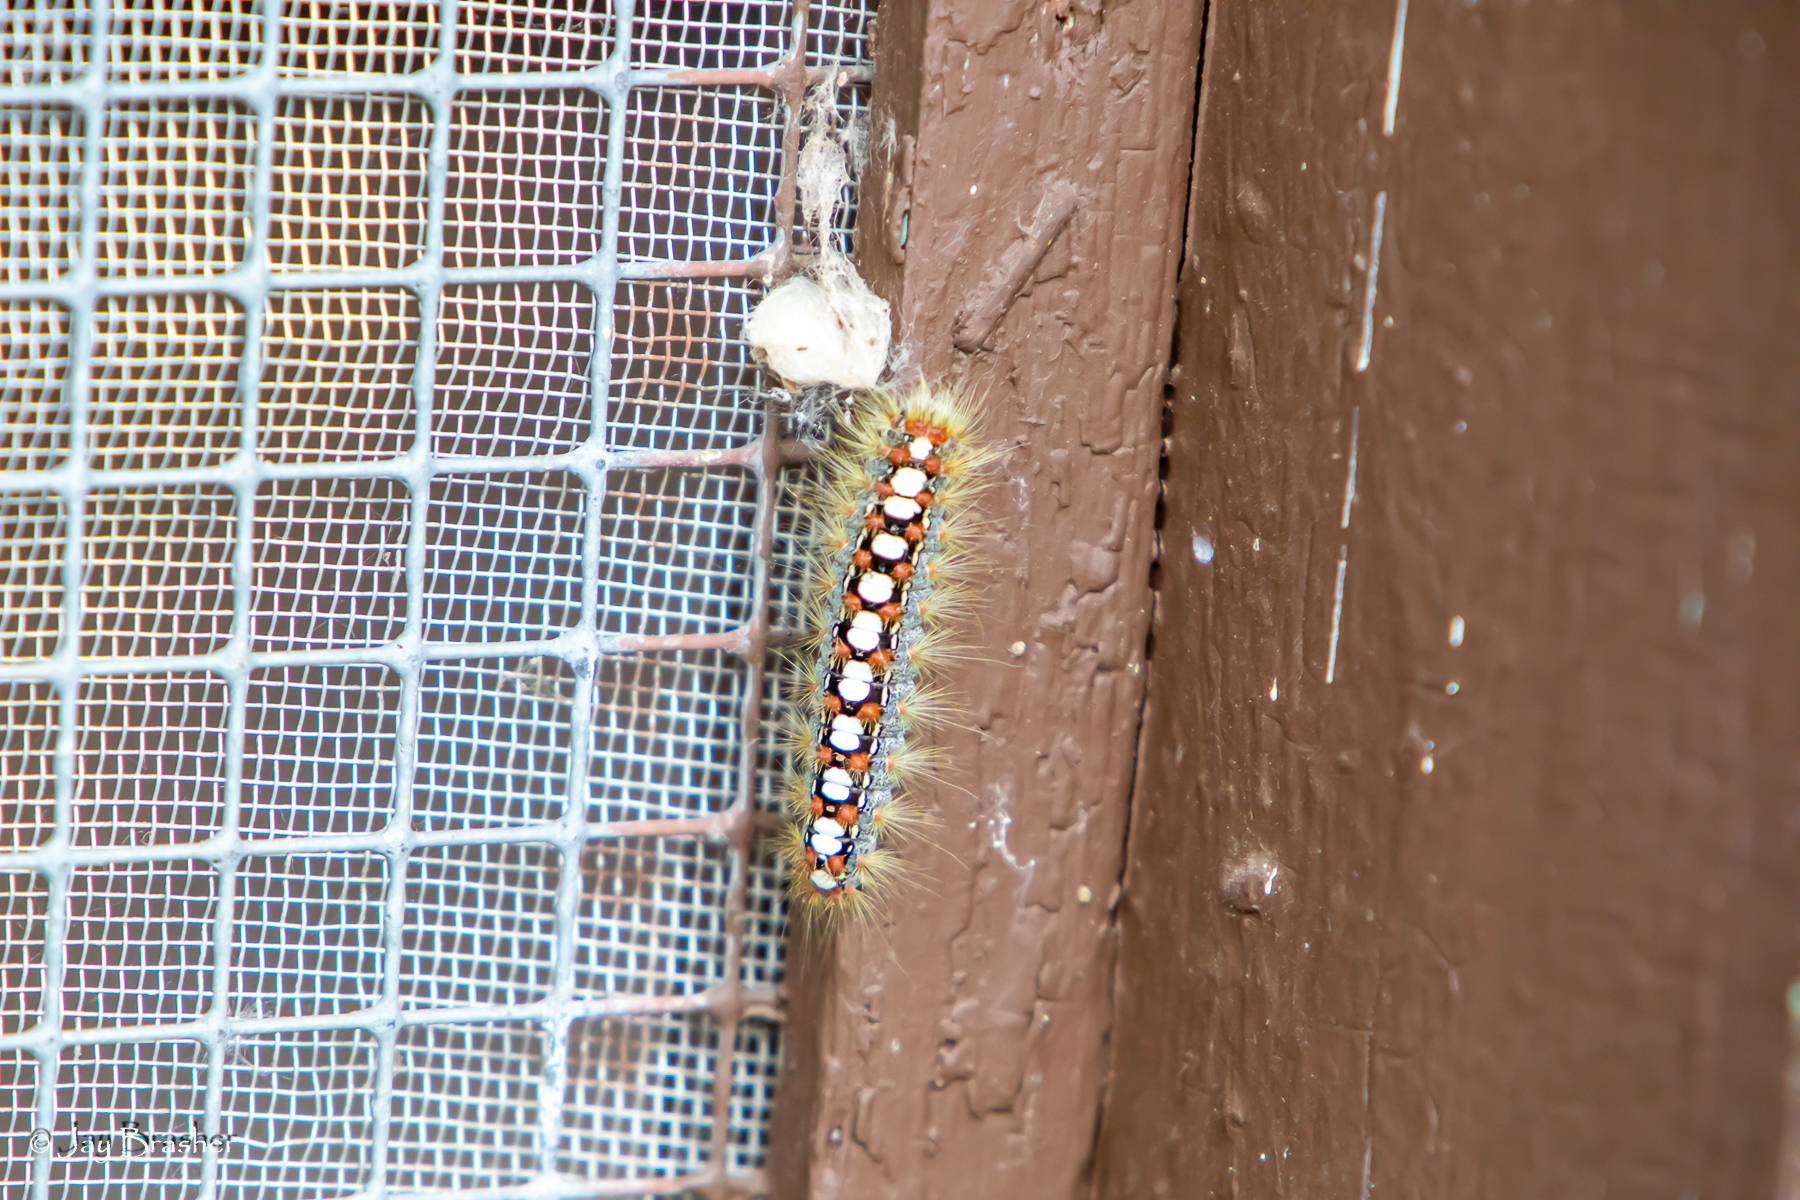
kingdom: Animalia
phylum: Arthropoda
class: Insecta
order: Lepidoptera
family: Erebidae
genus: Leucoma
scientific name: Leucoma salicis
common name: White satin moth
